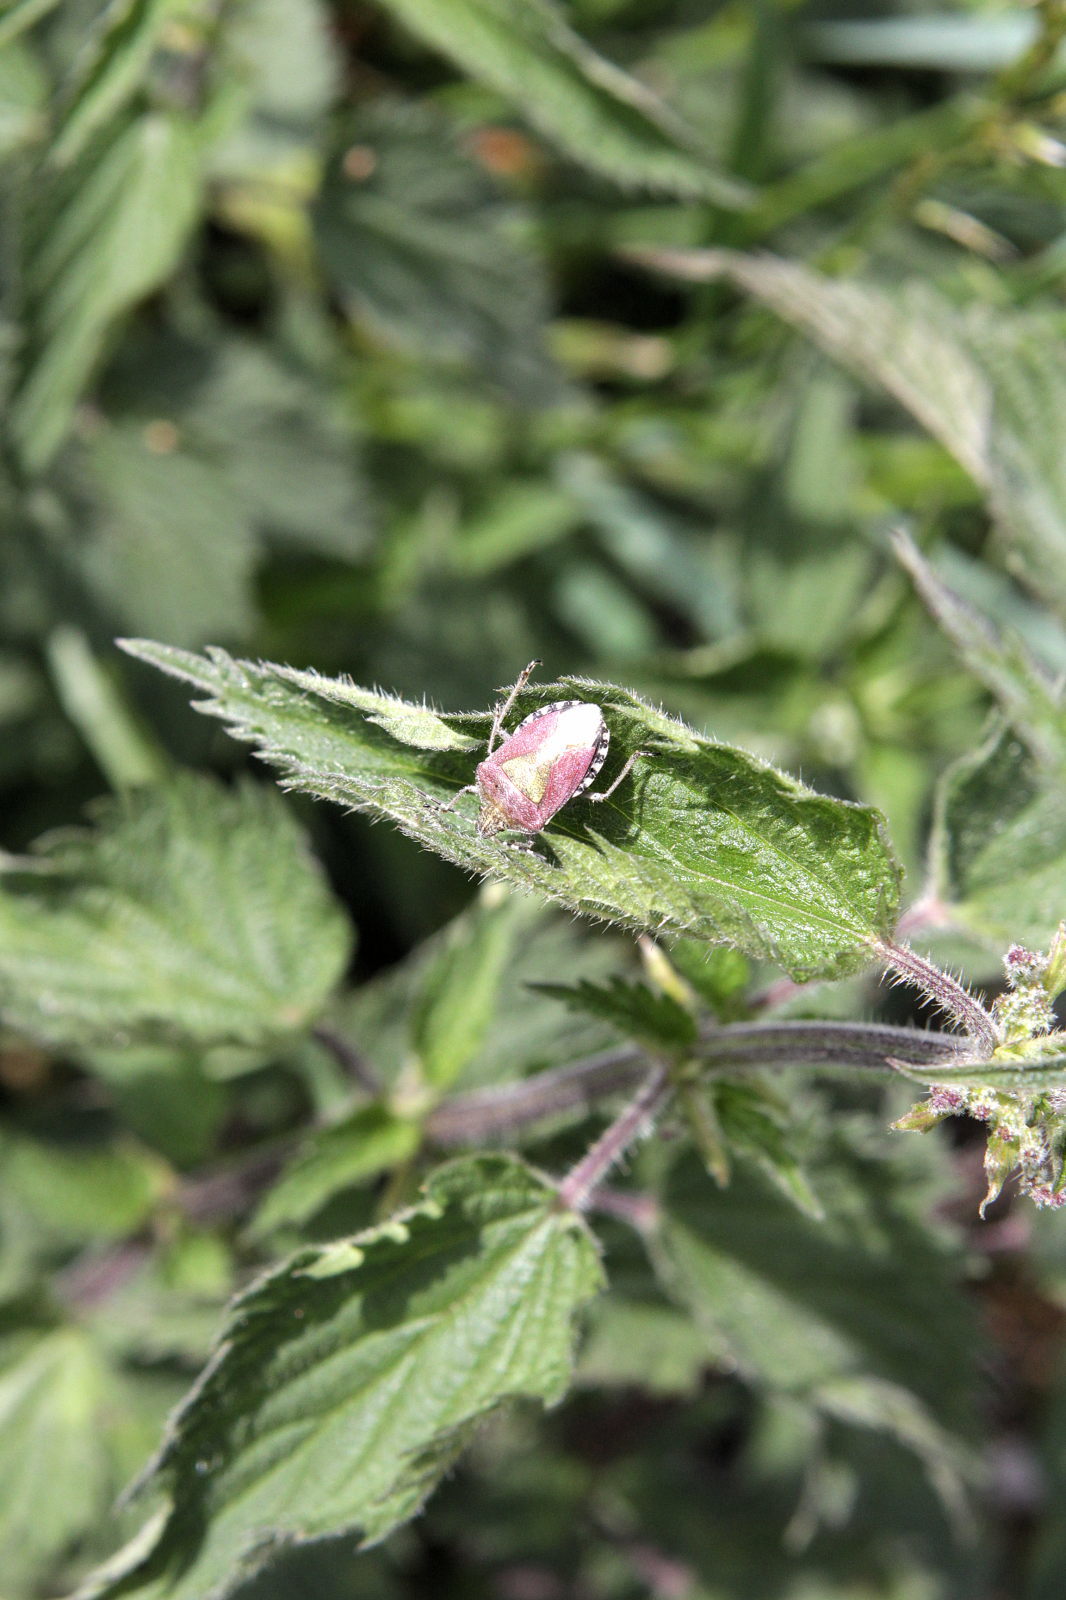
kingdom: Animalia
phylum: Arthropoda
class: Insecta
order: Hemiptera
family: Pentatomidae
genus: Dolycoris
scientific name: Dolycoris baccarum
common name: Sloe bug
